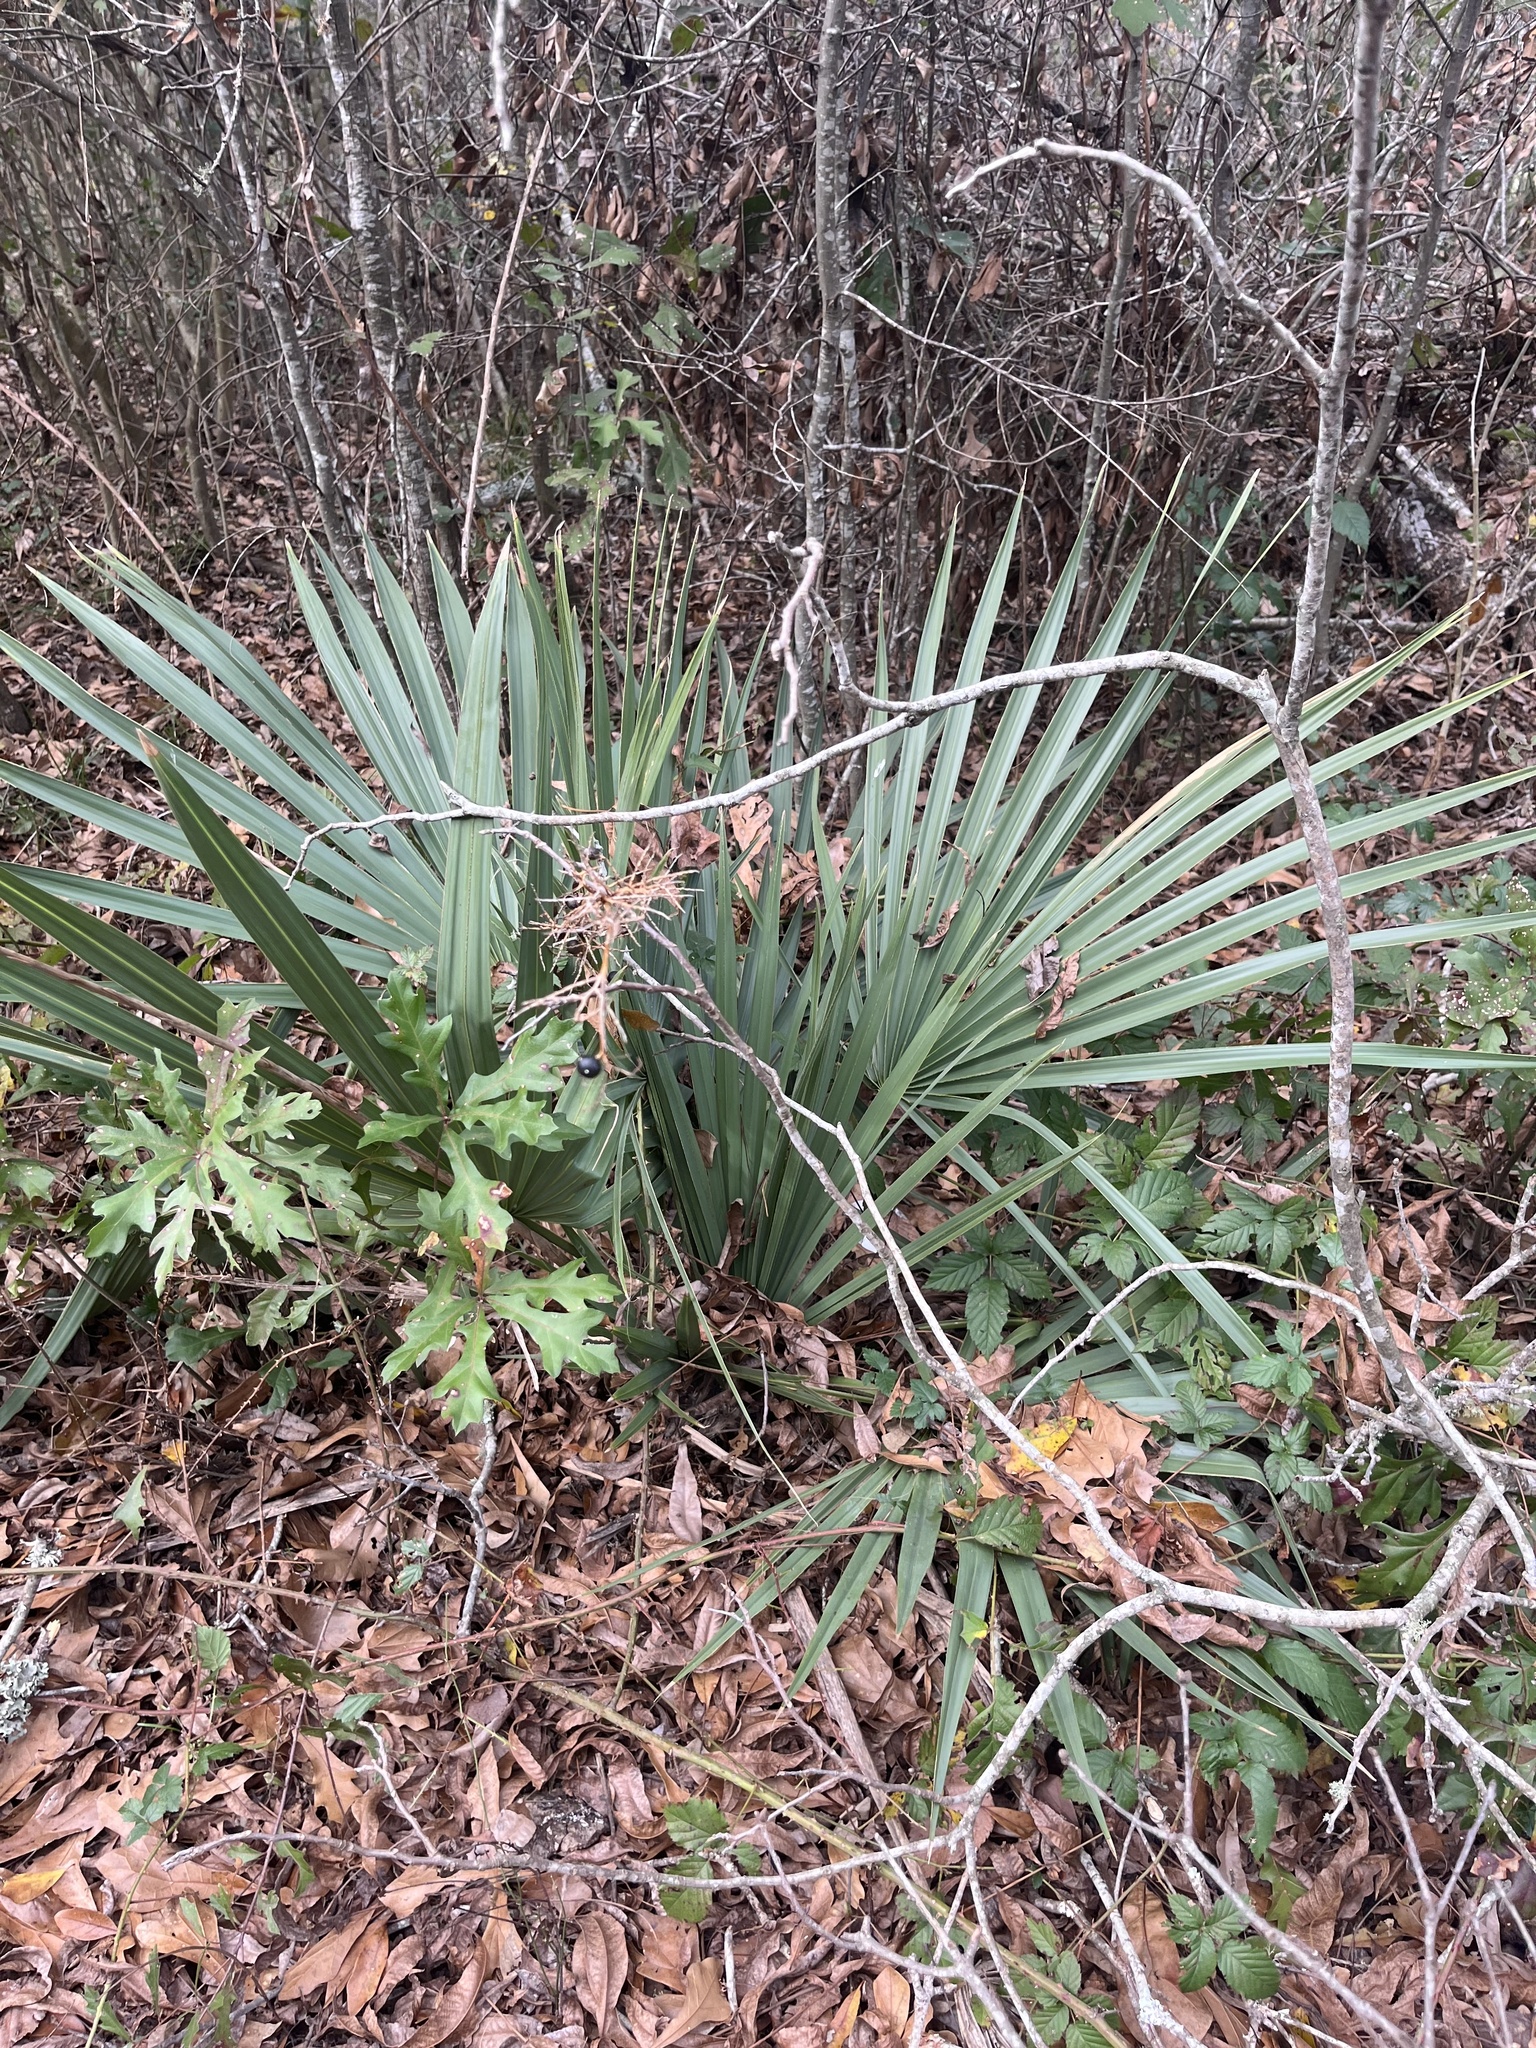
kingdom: Plantae
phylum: Tracheophyta
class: Liliopsida
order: Arecales
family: Arecaceae
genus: Sabal
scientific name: Sabal minor
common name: Dwarf palmetto
